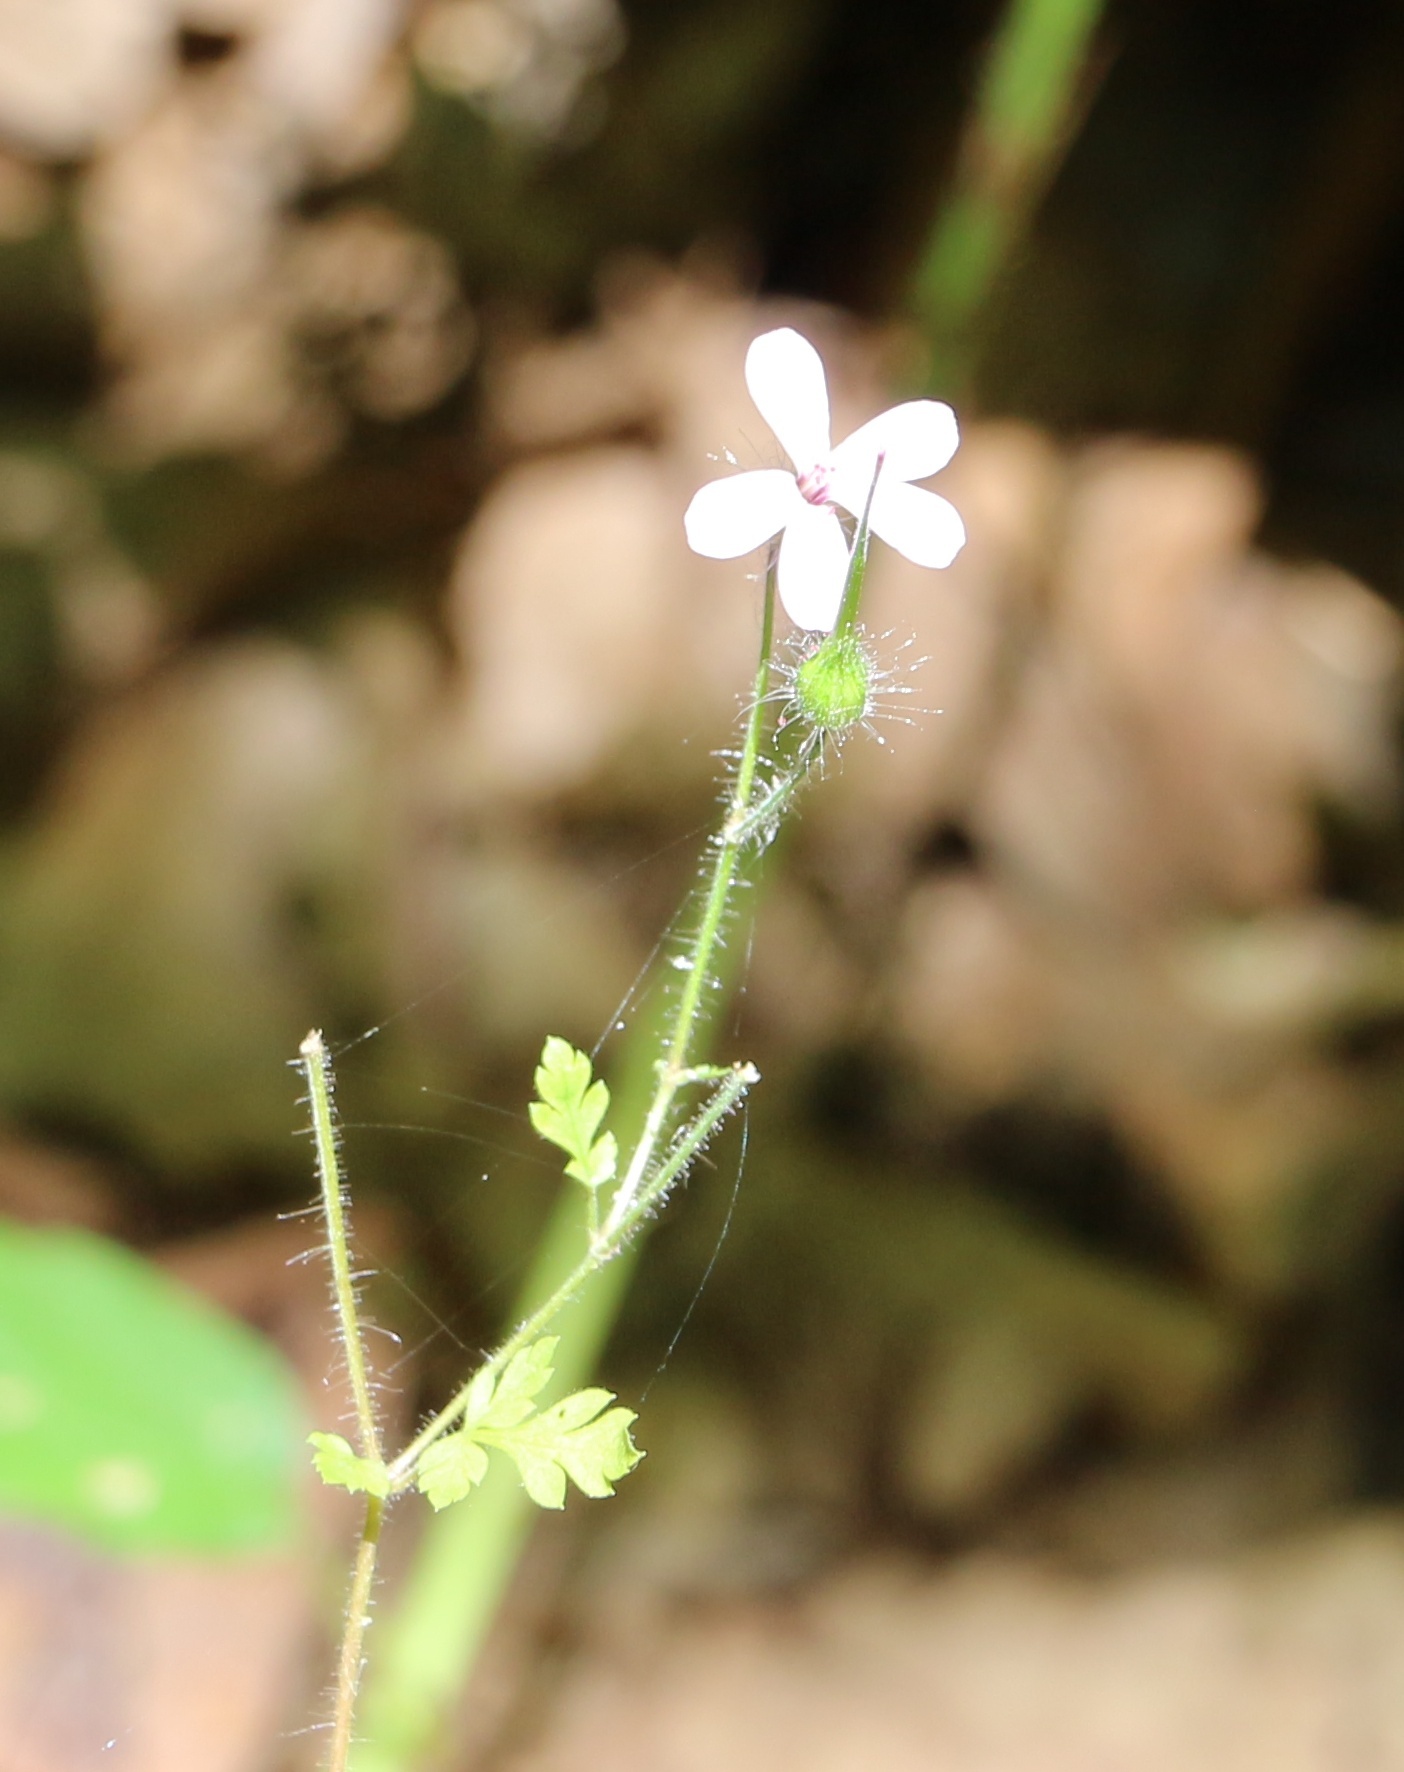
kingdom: Plantae
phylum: Tracheophyta
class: Magnoliopsida
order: Geraniales
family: Geraniaceae
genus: Geranium
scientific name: Geranium robertianum
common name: Herb-robert
